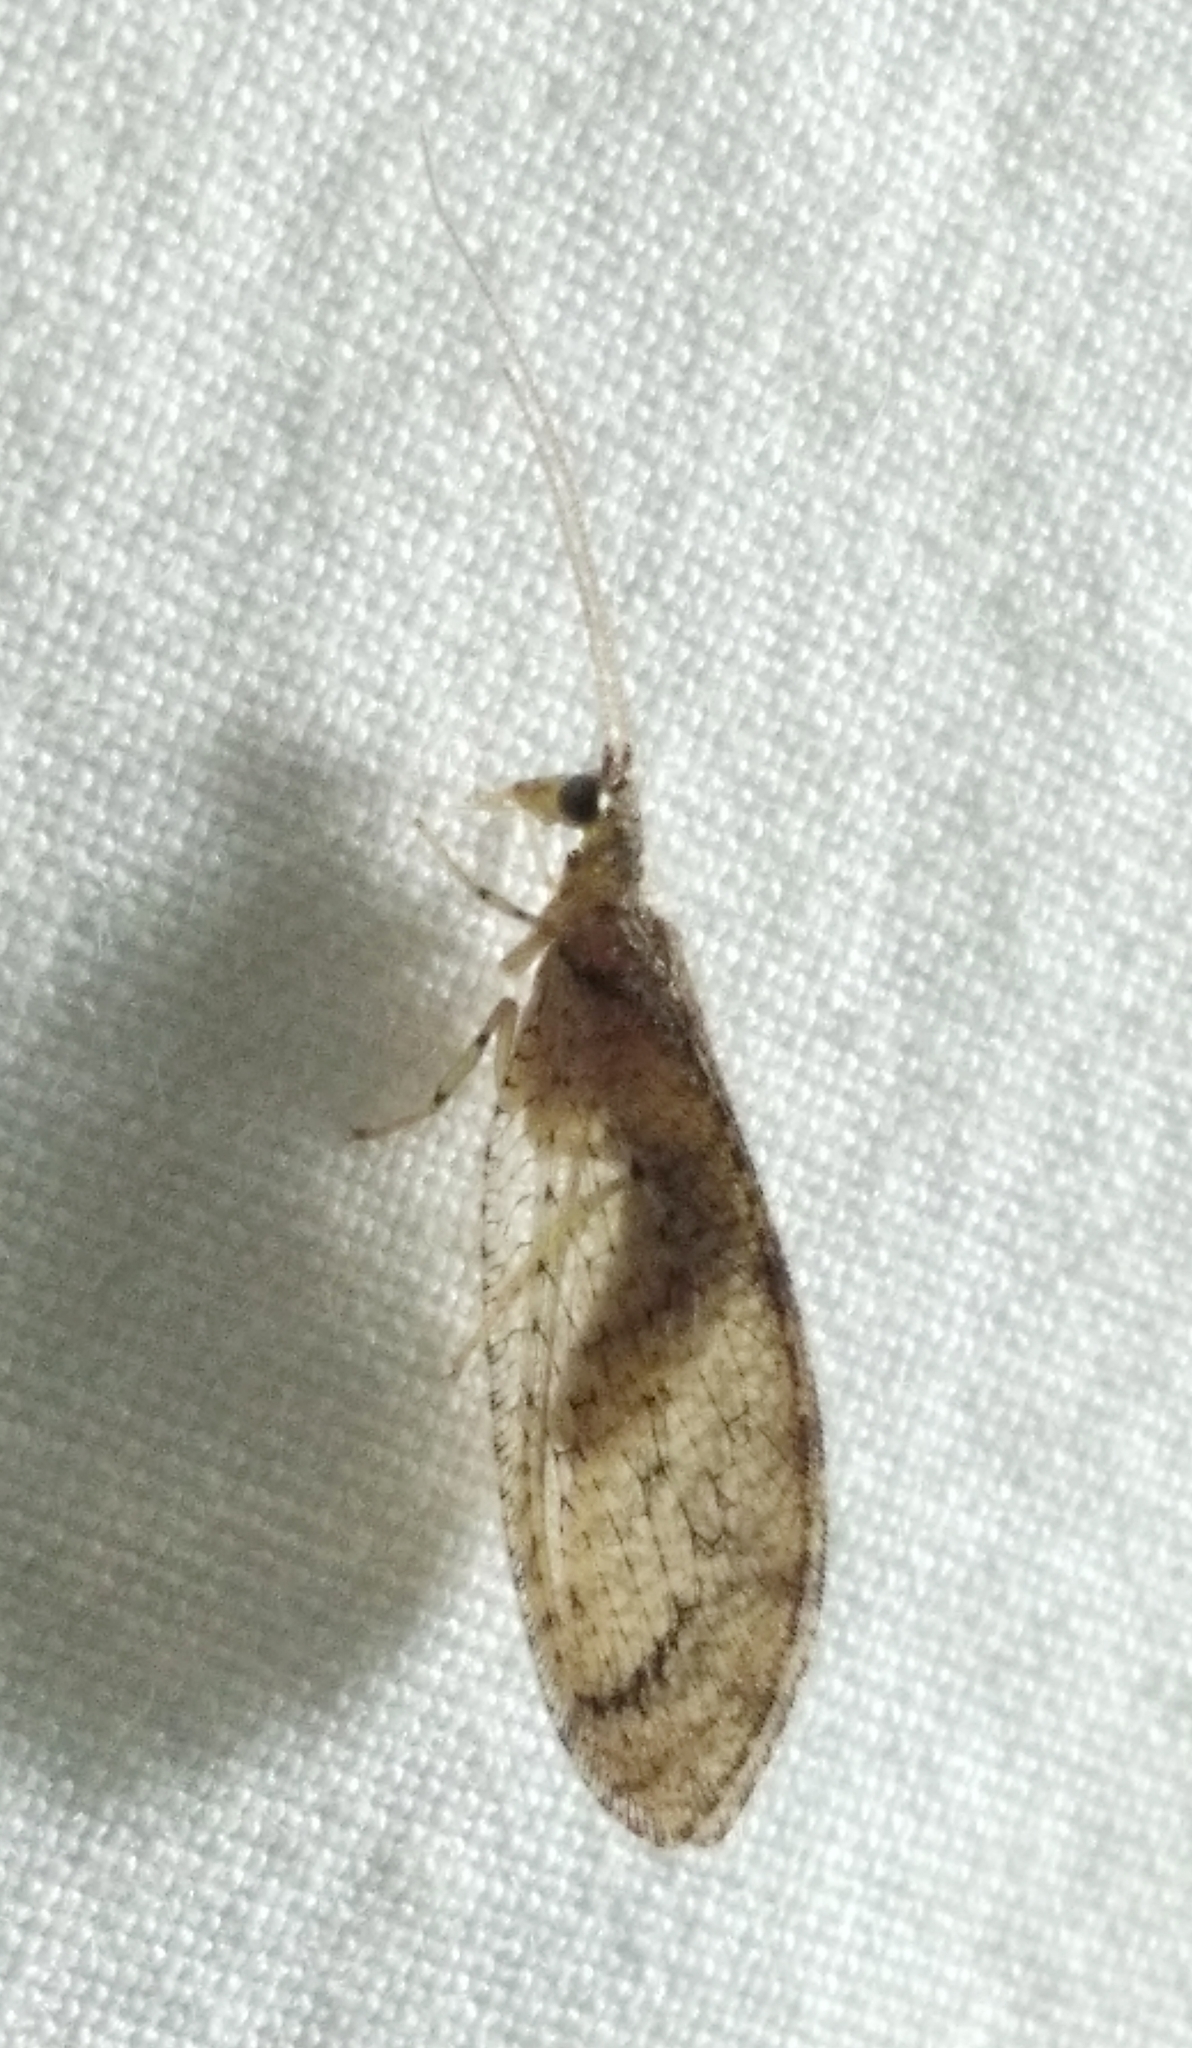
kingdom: Animalia
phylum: Arthropoda
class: Insecta
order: Neuroptera
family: Hemerobiidae
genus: Nusalala
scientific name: Nusalala tessellata
